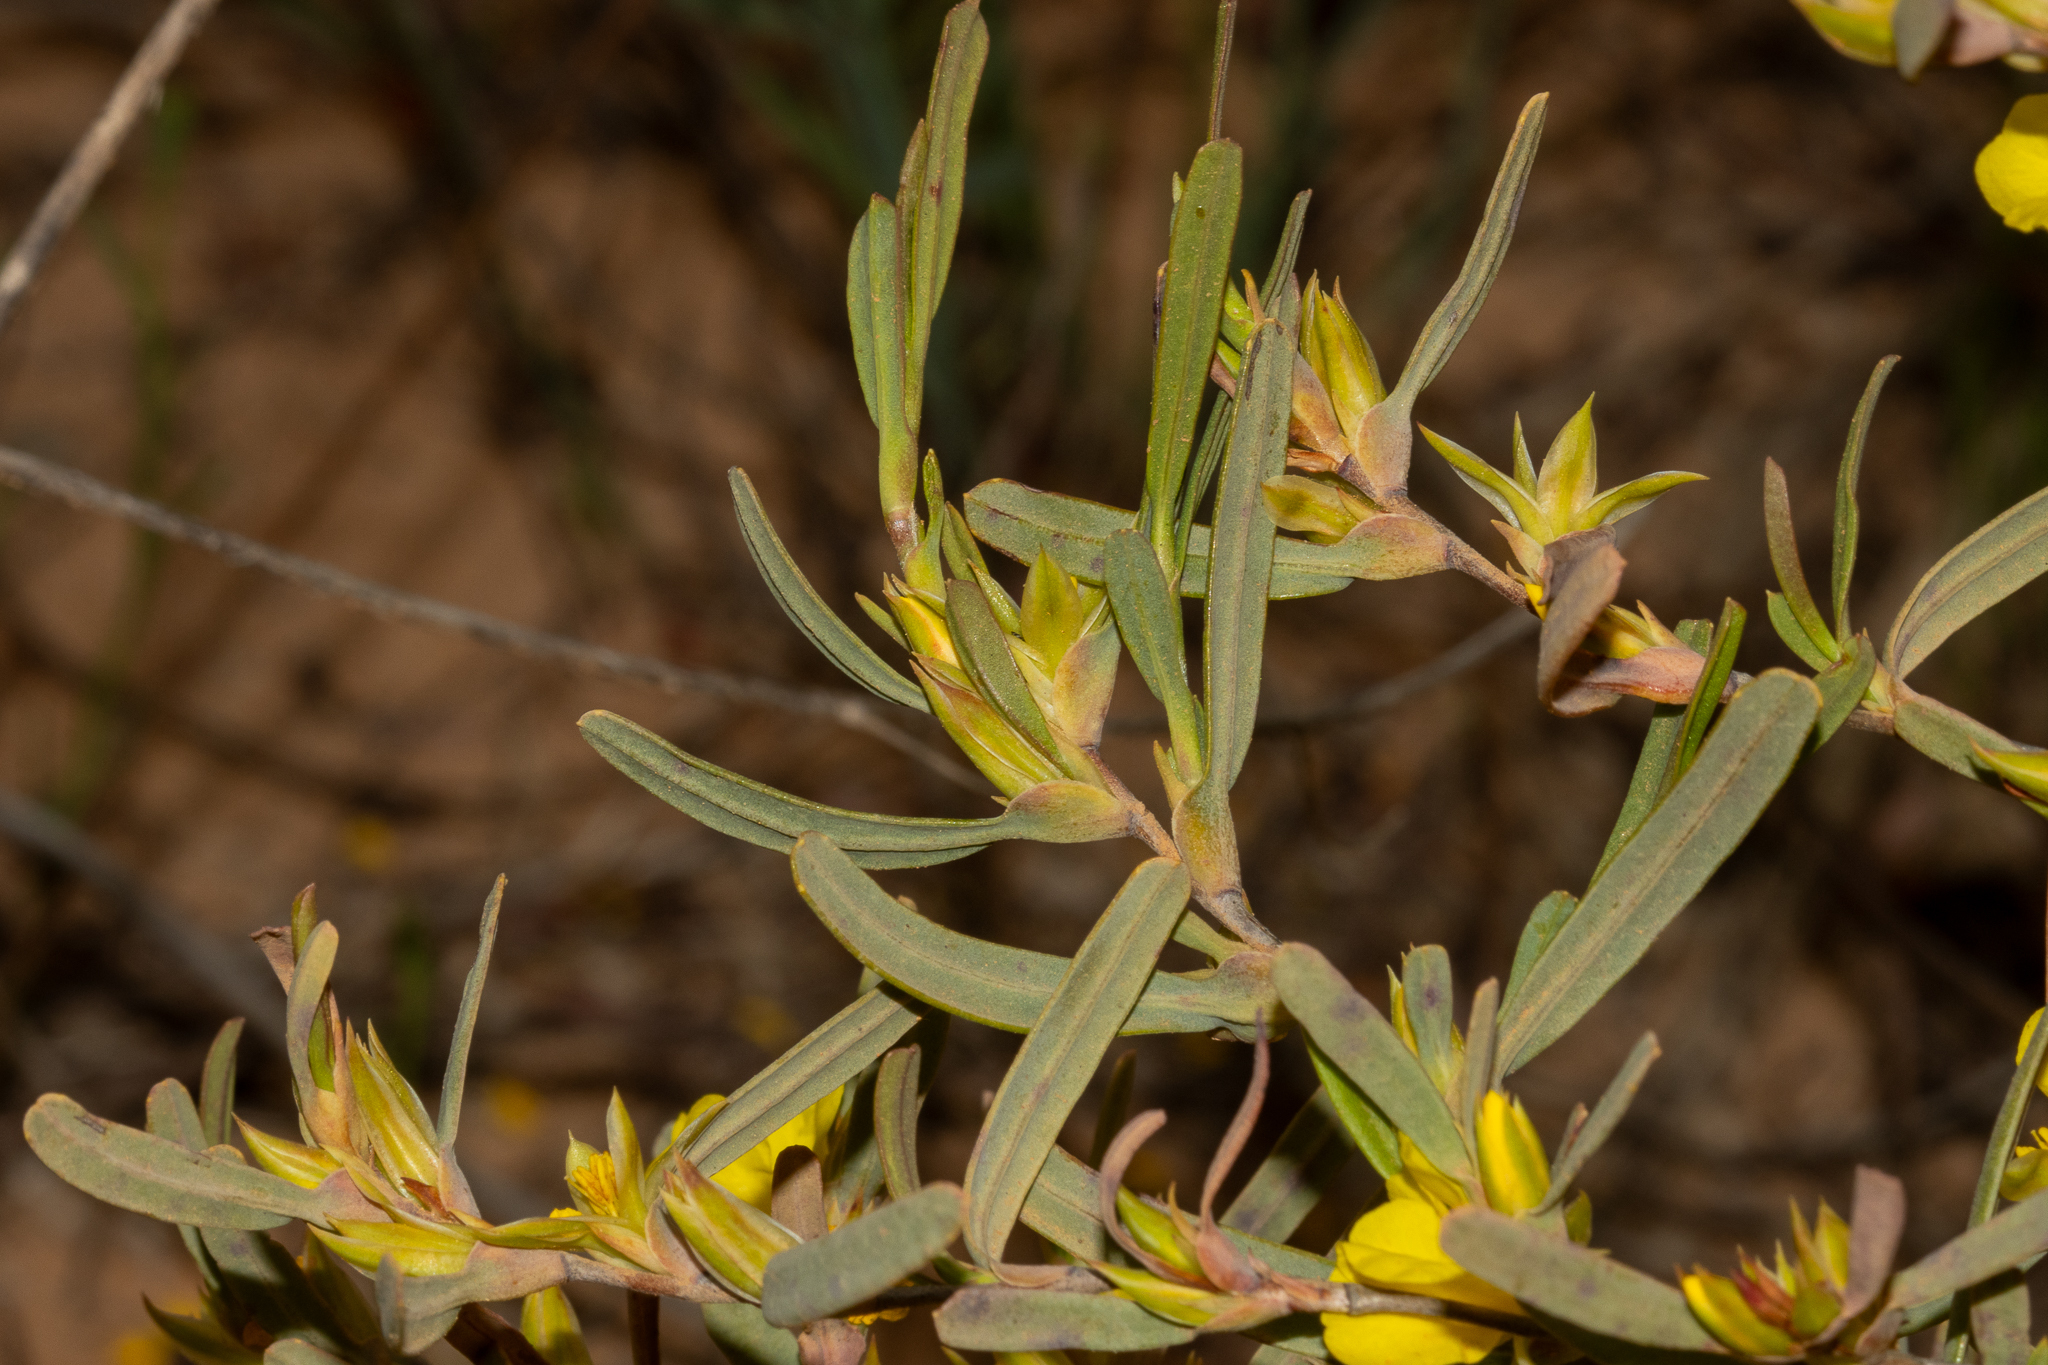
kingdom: Plantae
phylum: Tracheophyta
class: Magnoliopsida
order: Dilleniales
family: Dilleniaceae
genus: Hibbertia
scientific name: Hibbertia subvaginata
